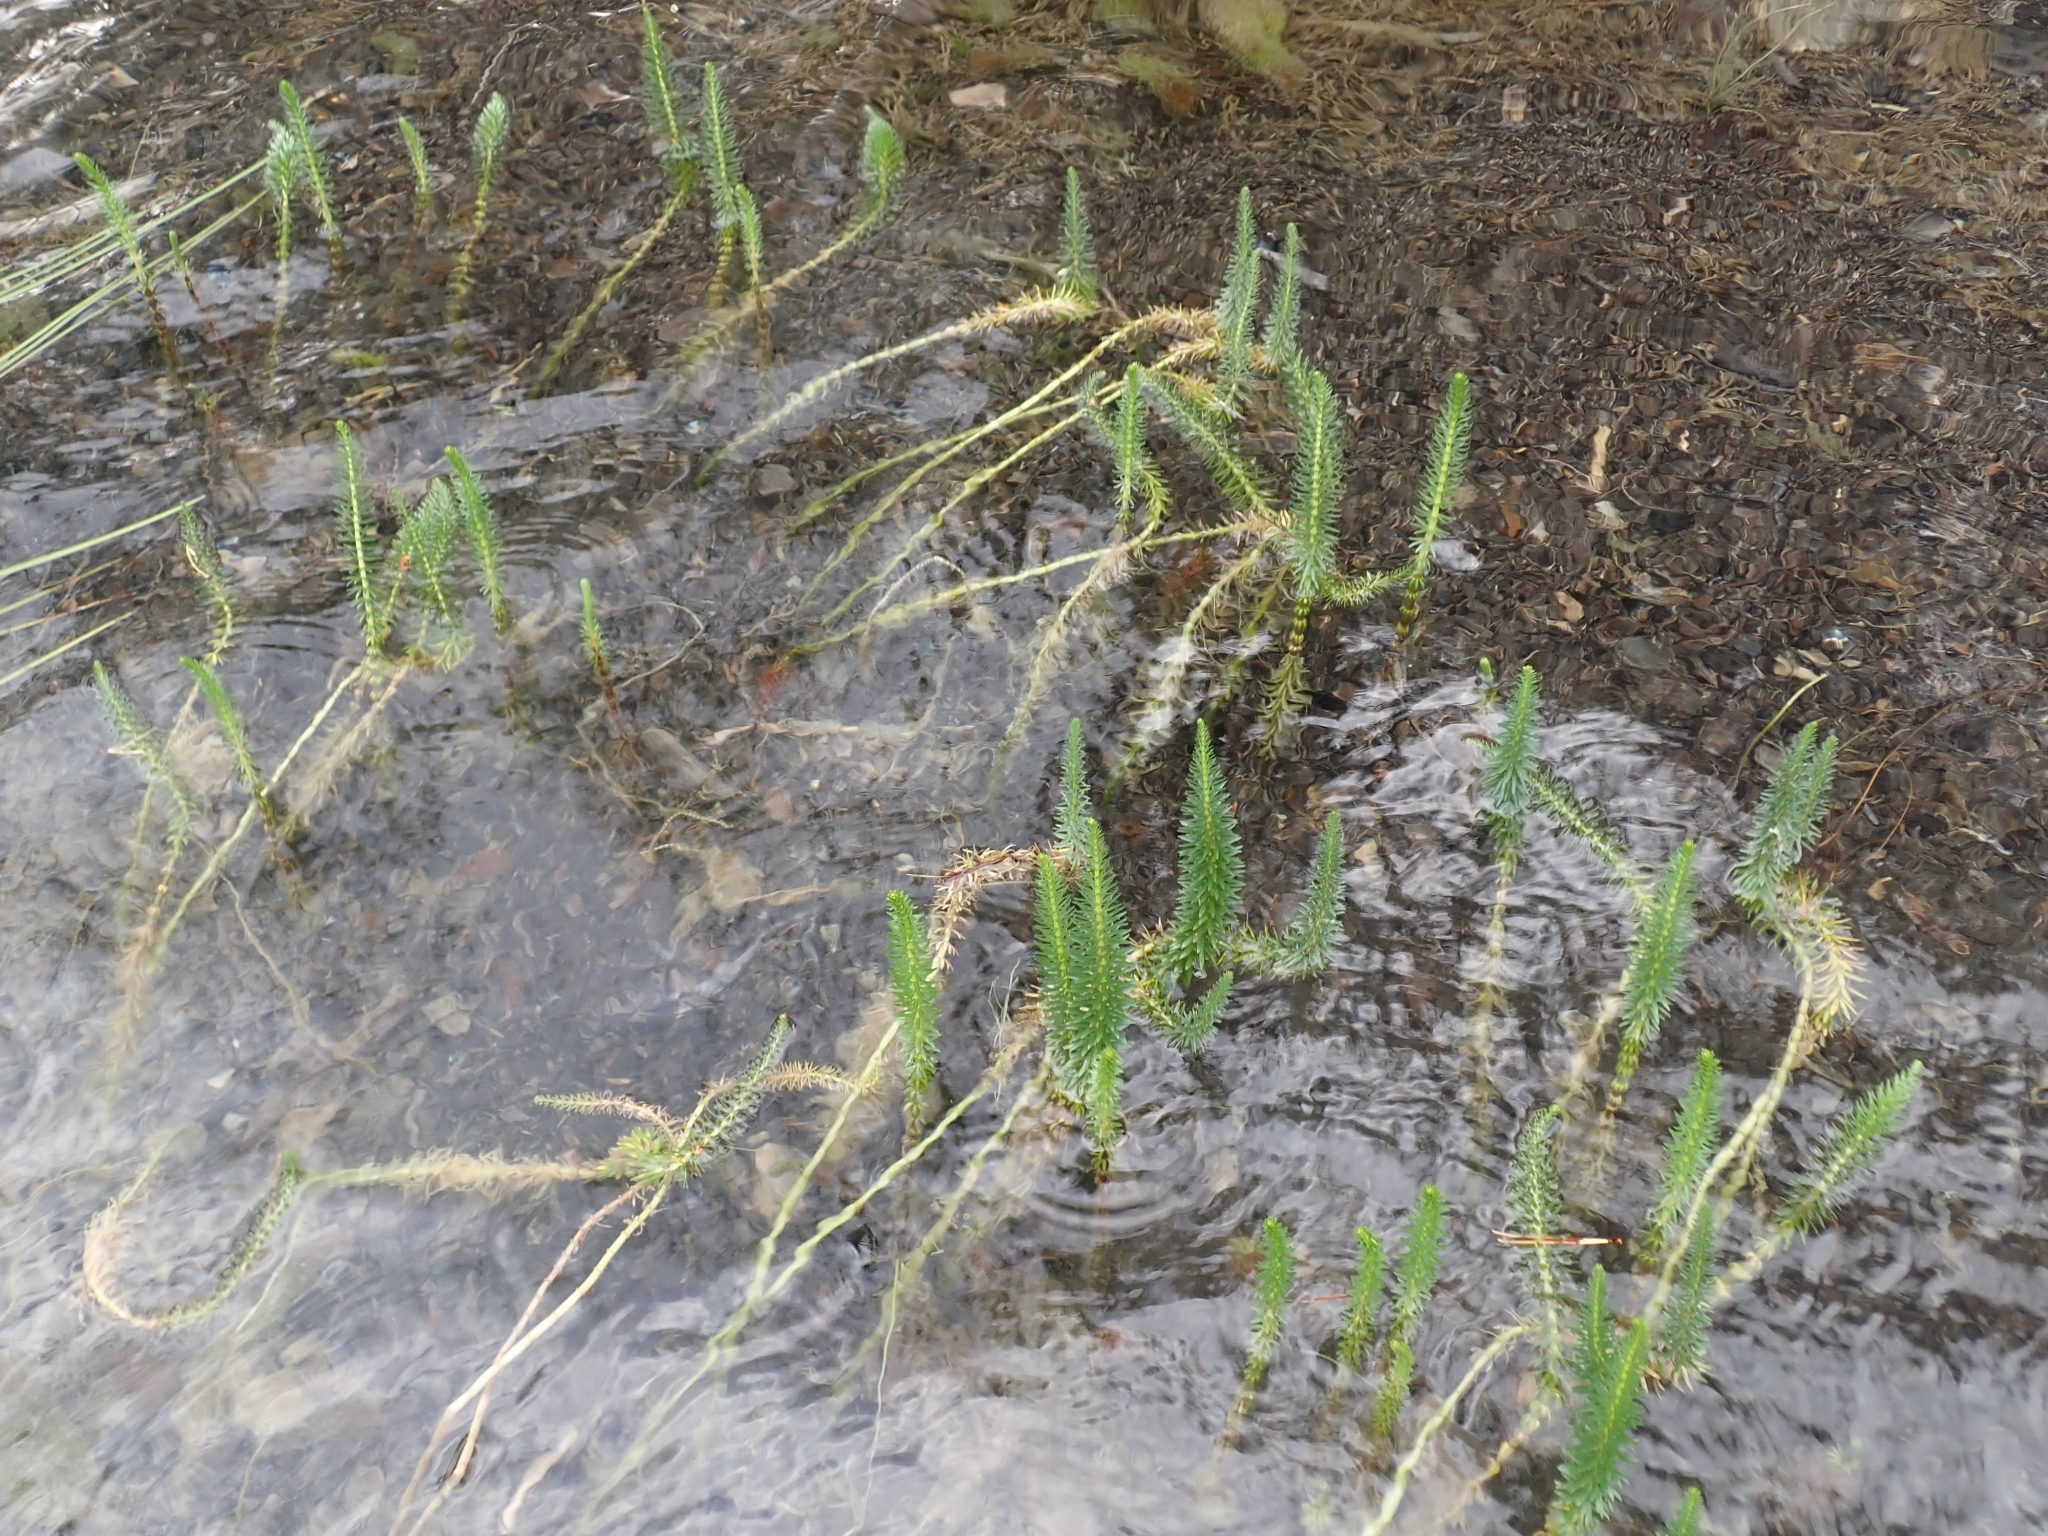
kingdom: Plantae
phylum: Tracheophyta
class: Magnoliopsida
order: Lamiales
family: Plantaginaceae
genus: Hippuris
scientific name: Hippuris vulgaris
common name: Mare's-tail
